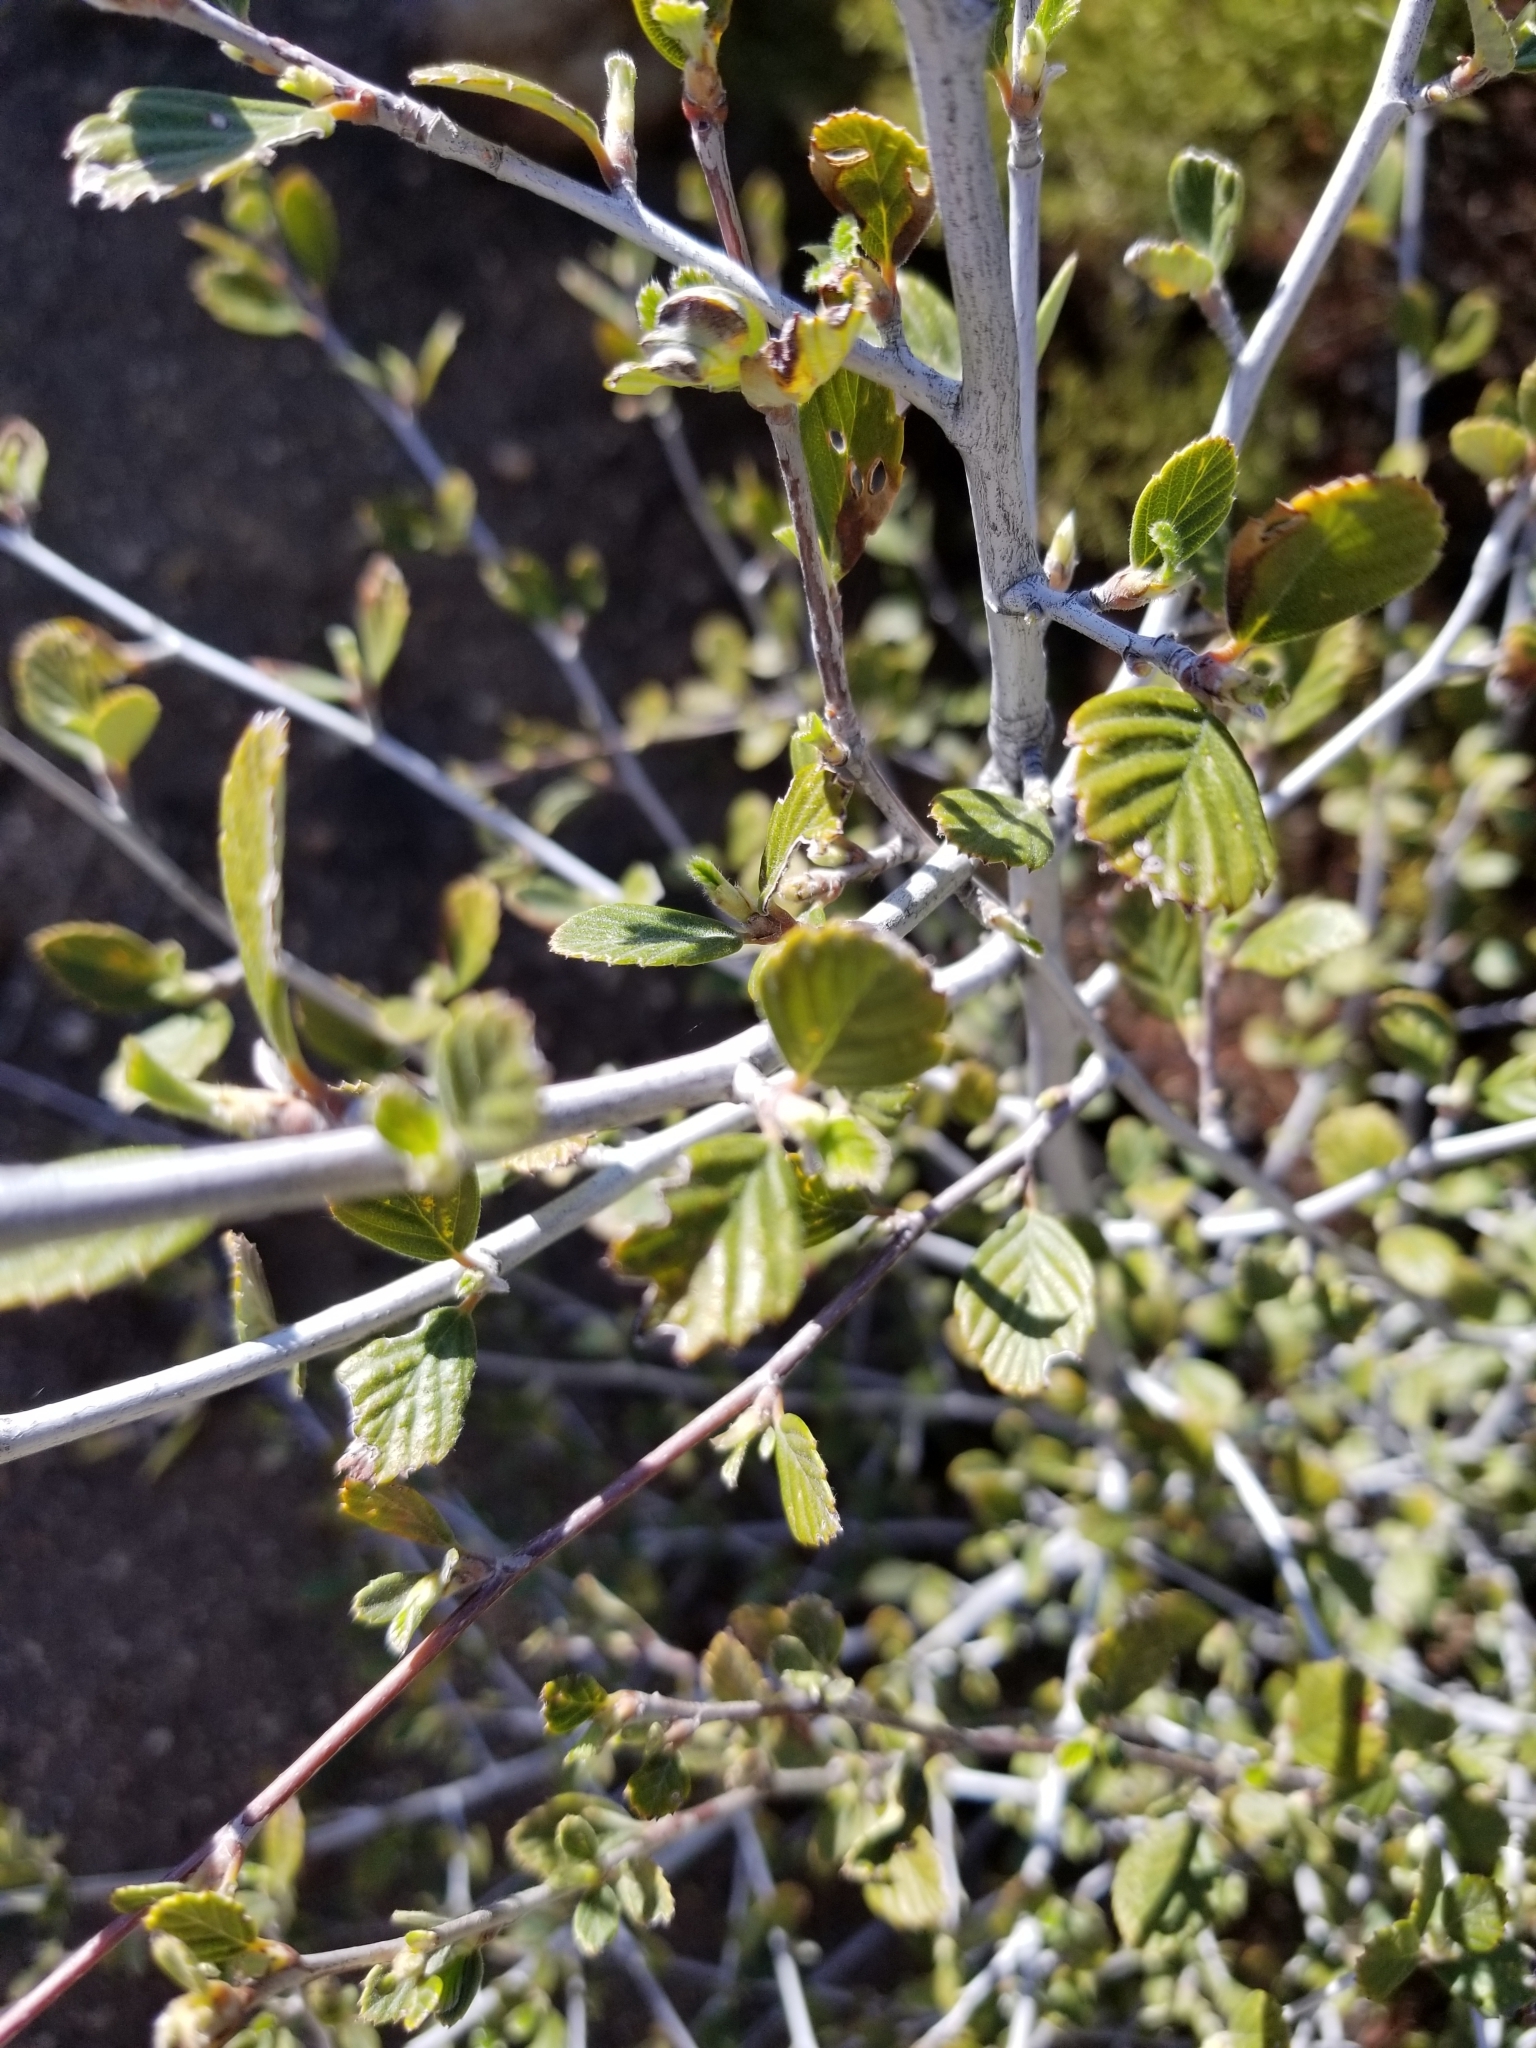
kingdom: Plantae
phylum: Tracheophyta
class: Magnoliopsida
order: Rosales
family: Rosaceae
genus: Cercocarpus
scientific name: Cercocarpus betuloides
